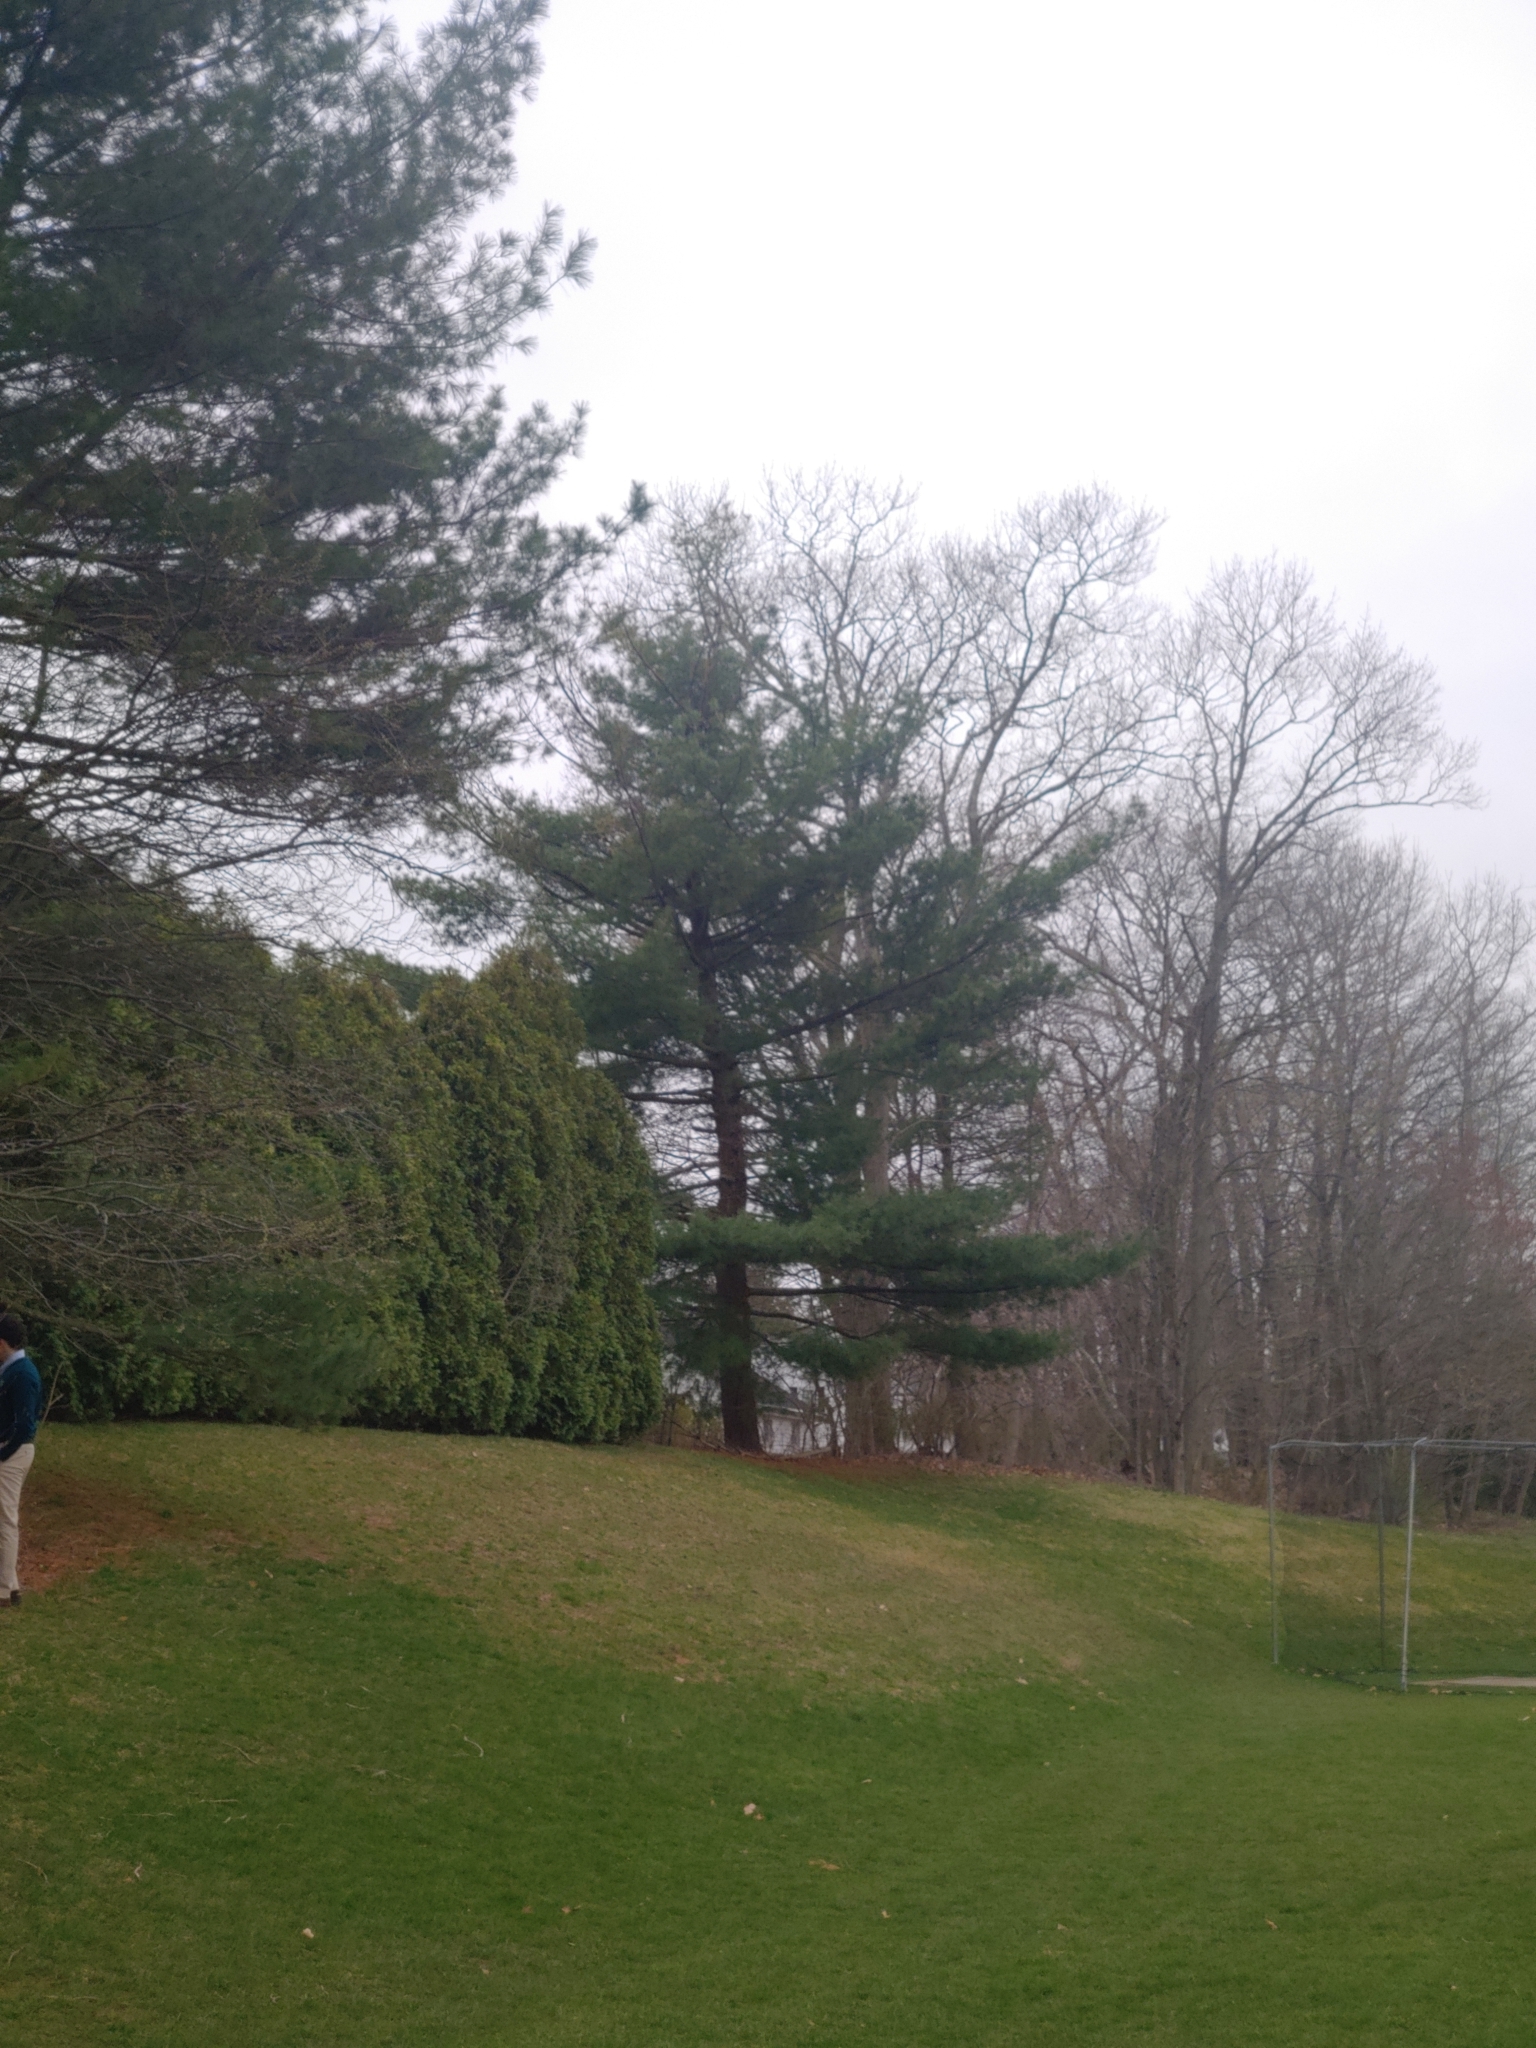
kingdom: Plantae
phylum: Tracheophyta
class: Pinopsida
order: Pinales
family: Pinaceae
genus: Pinus
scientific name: Pinus strobus
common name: Weymouth pine
